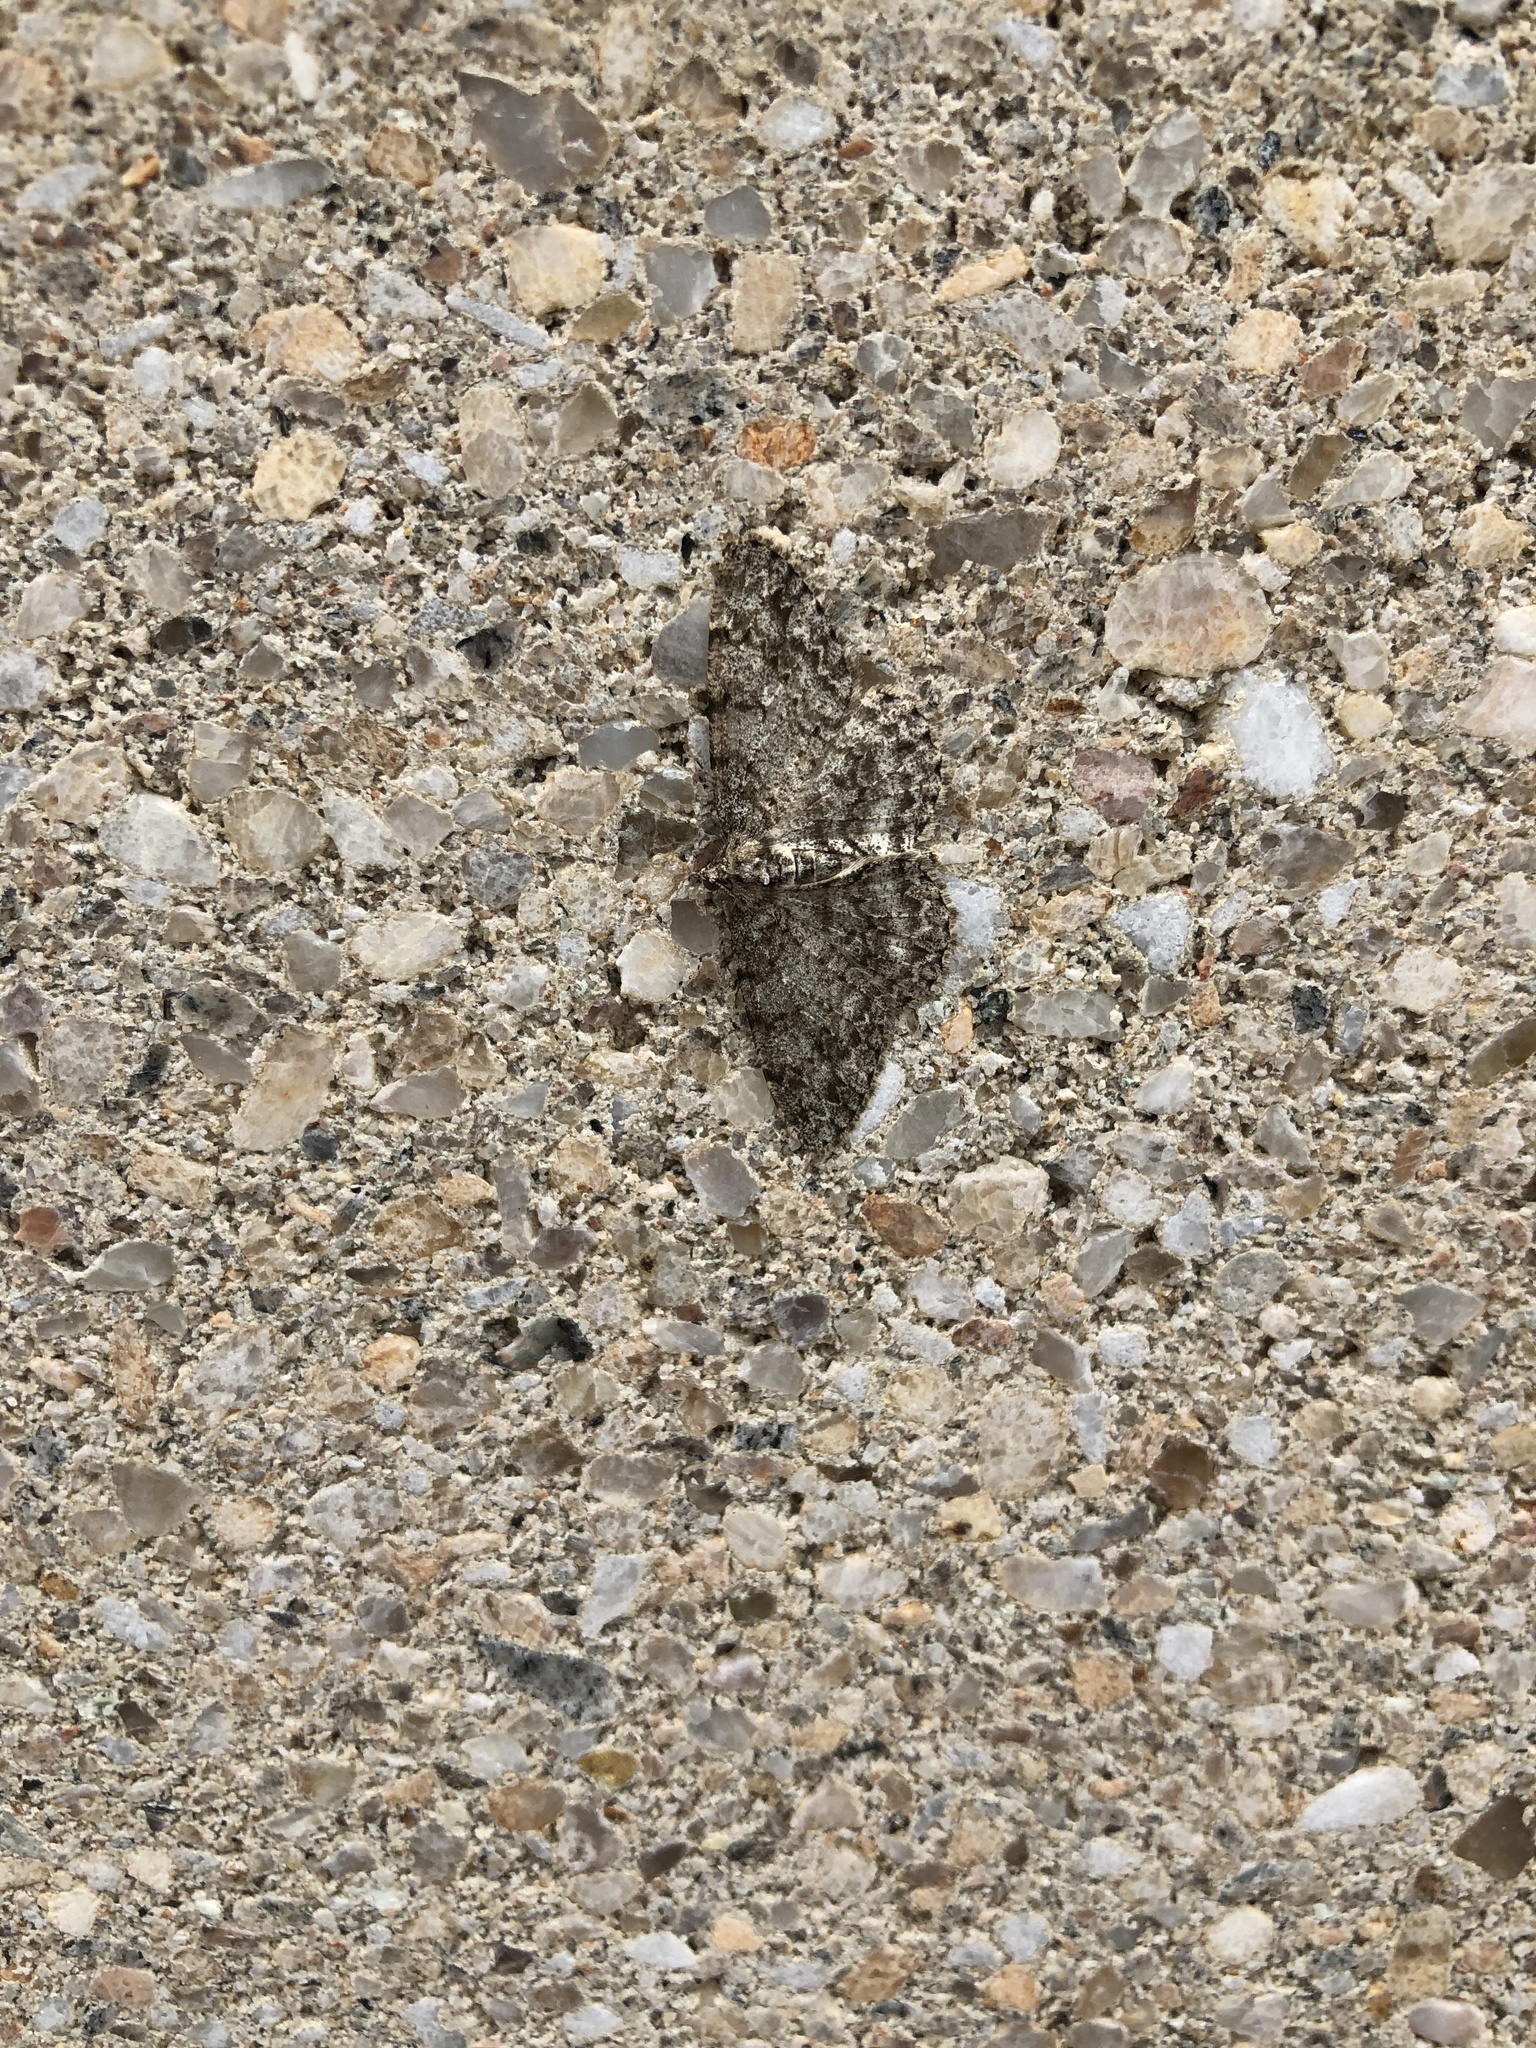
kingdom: Animalia
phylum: Arthropoda
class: Insecta
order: Lepidoptera
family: Geometridae
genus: Protoboarmia
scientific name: Protoboarmia porcelaria
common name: Porcelain gray
